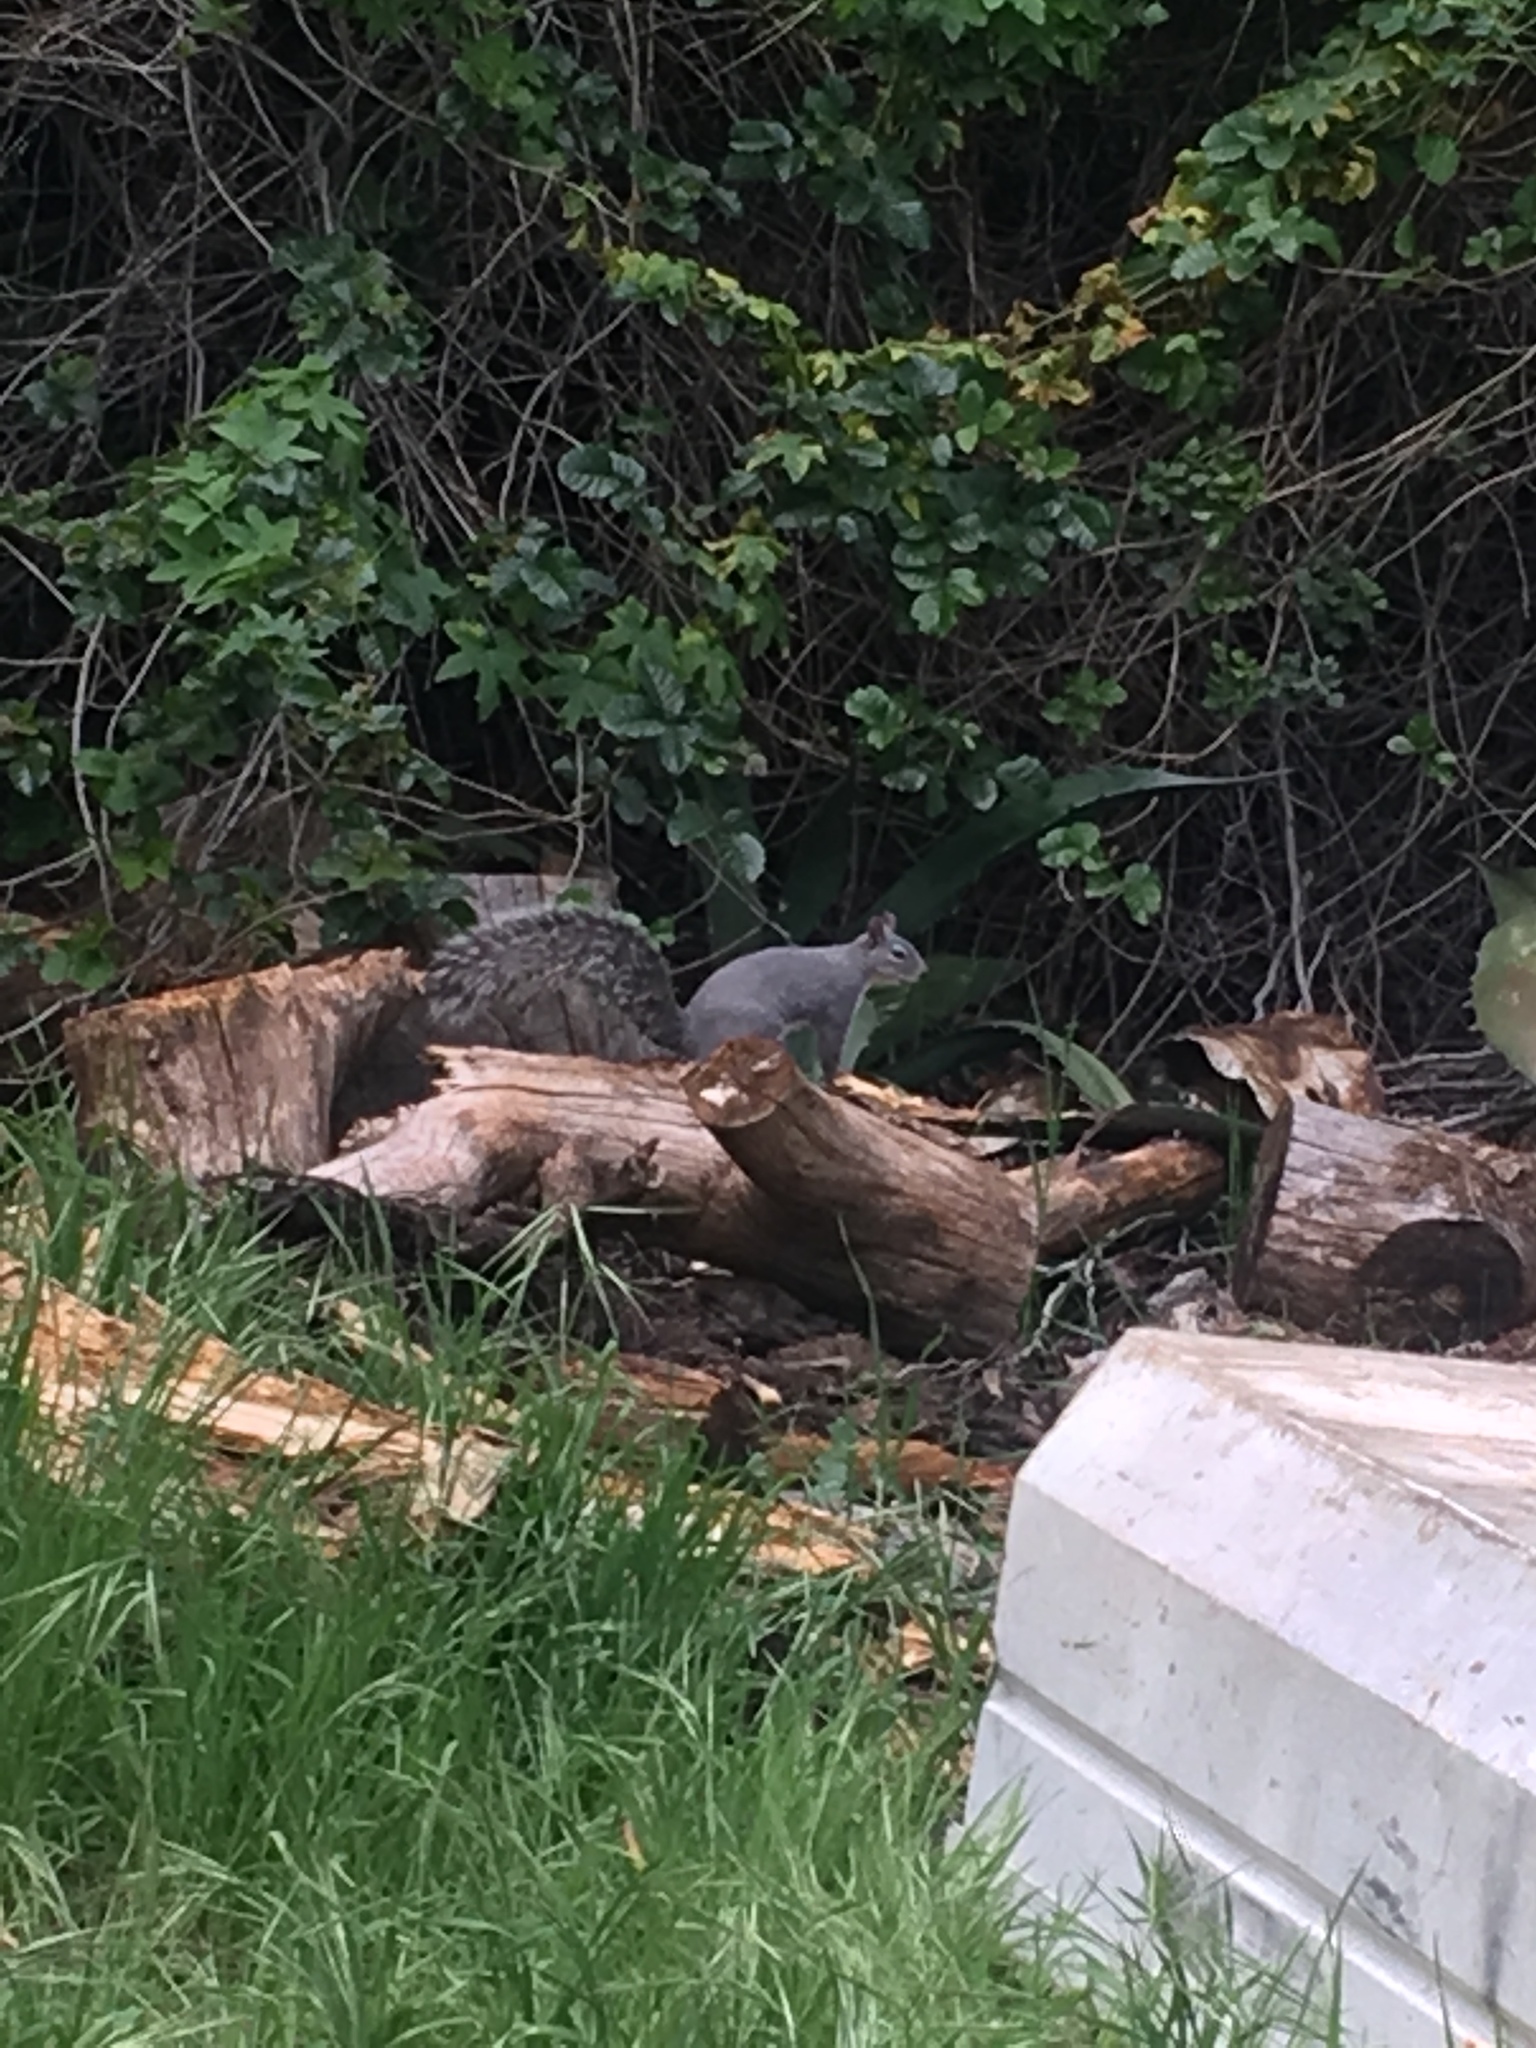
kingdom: Animalia
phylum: Chordata
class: Mammalia
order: Rodentia
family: Sciuridae
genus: Sciurus
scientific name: Sciurus griseus
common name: Western gray squirrel
